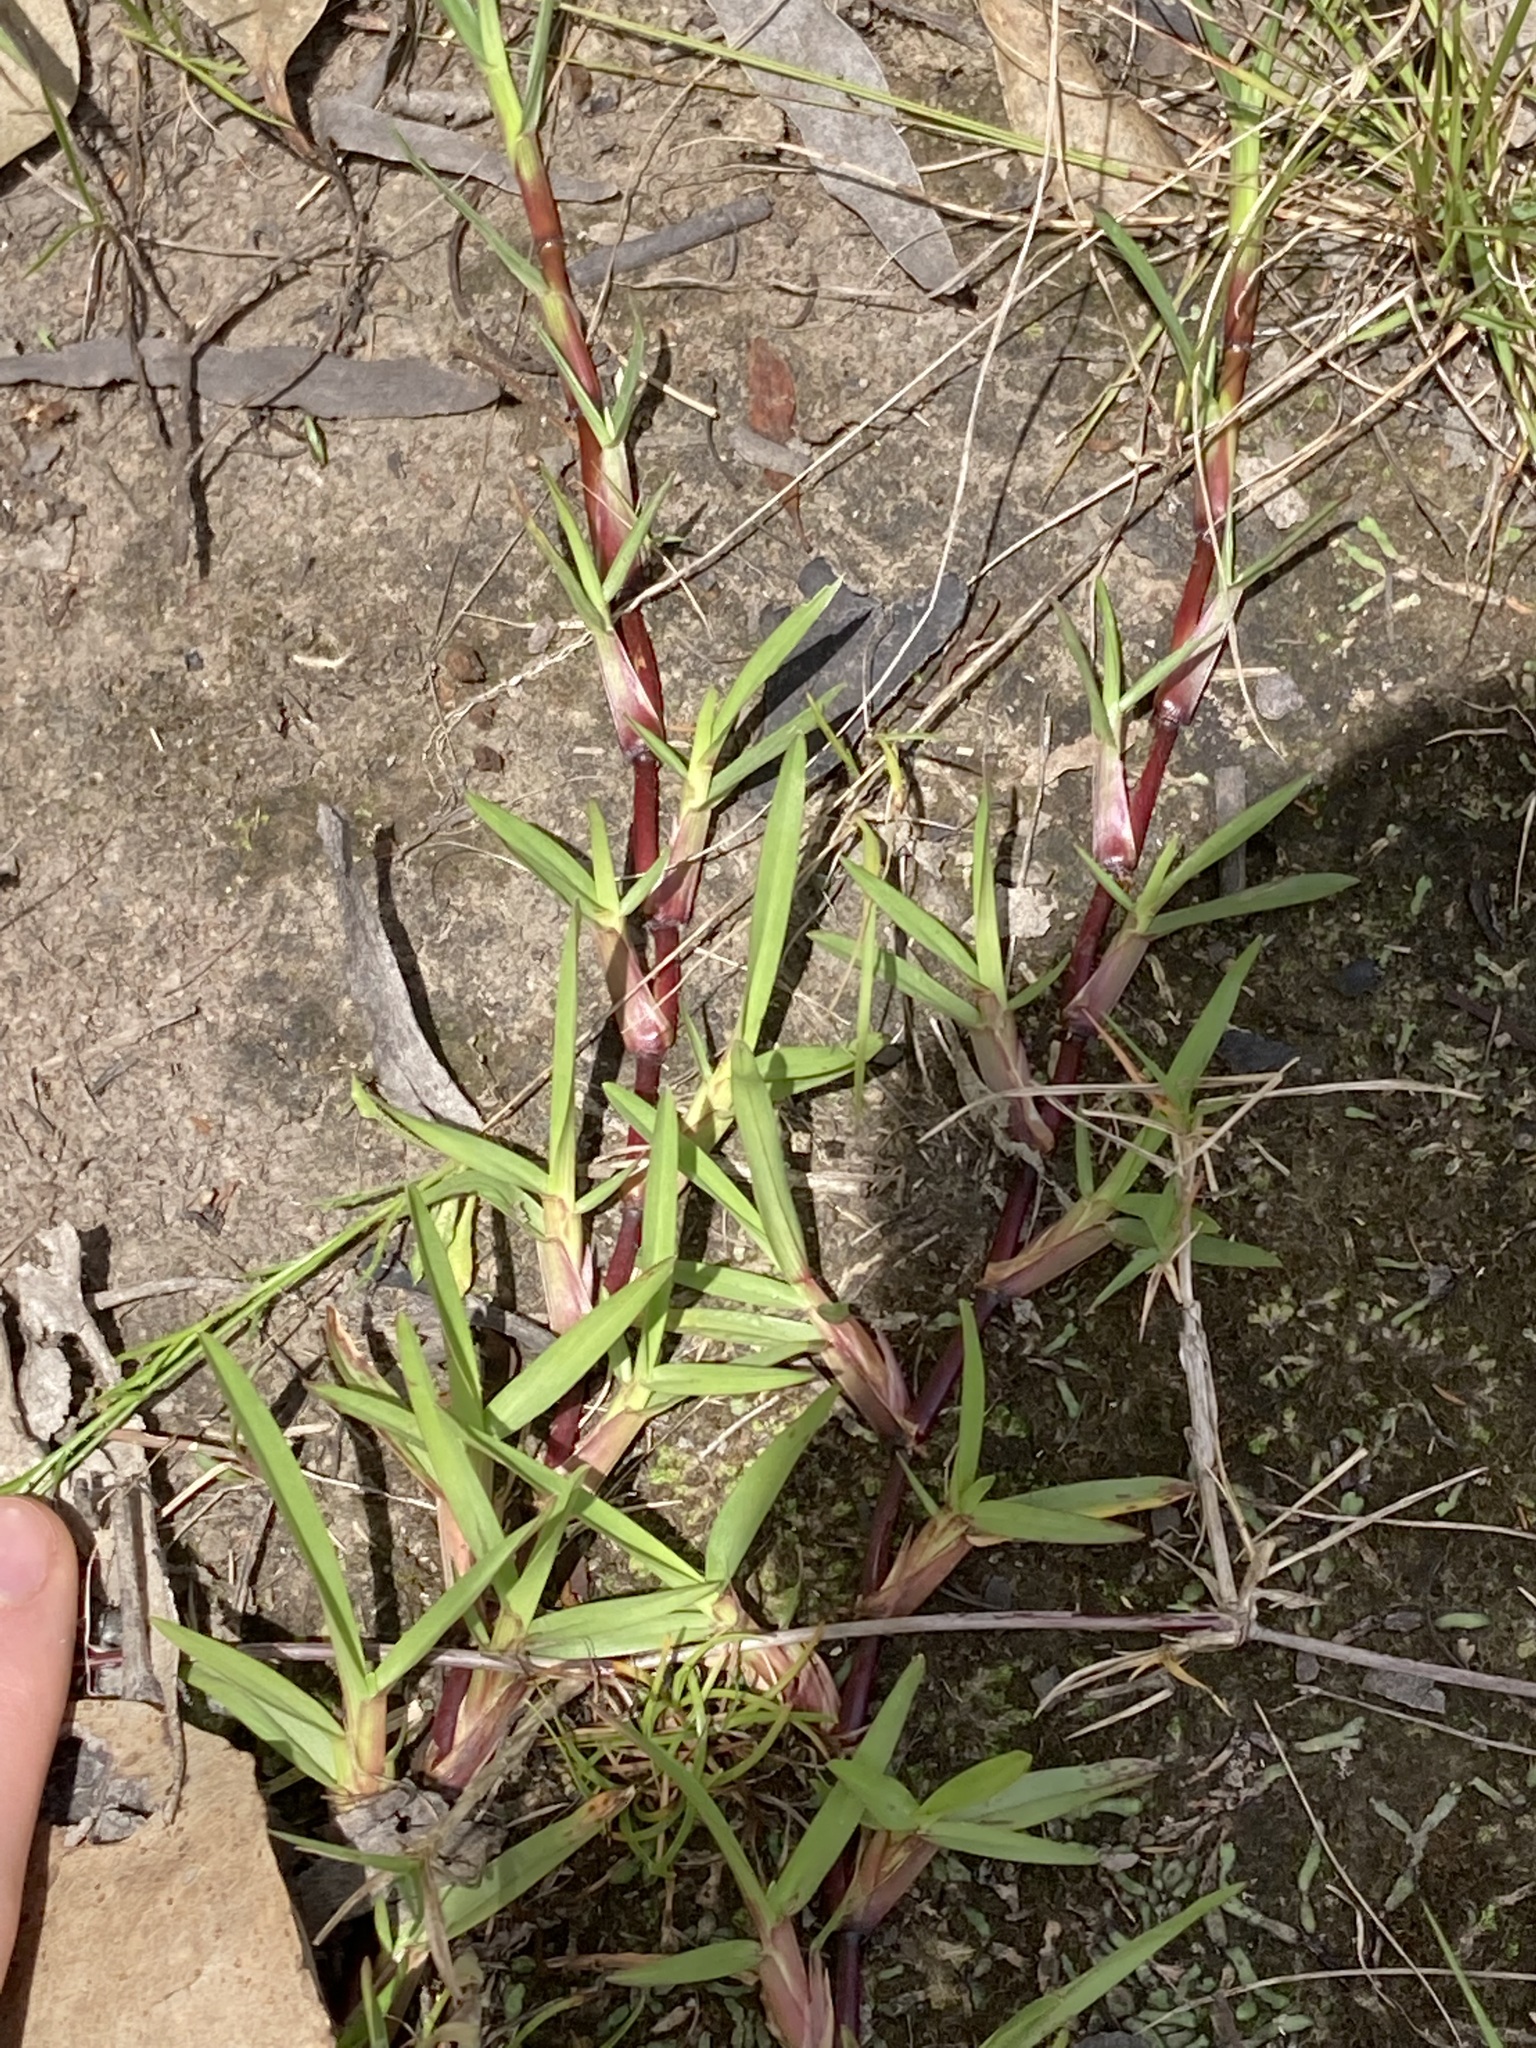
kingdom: Plantae
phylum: Tracheophyta
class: Liliopsida
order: Poales
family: Poaceae
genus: Stenotaphrum
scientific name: Stenotaphrum secundatum
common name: St. augustine grass
